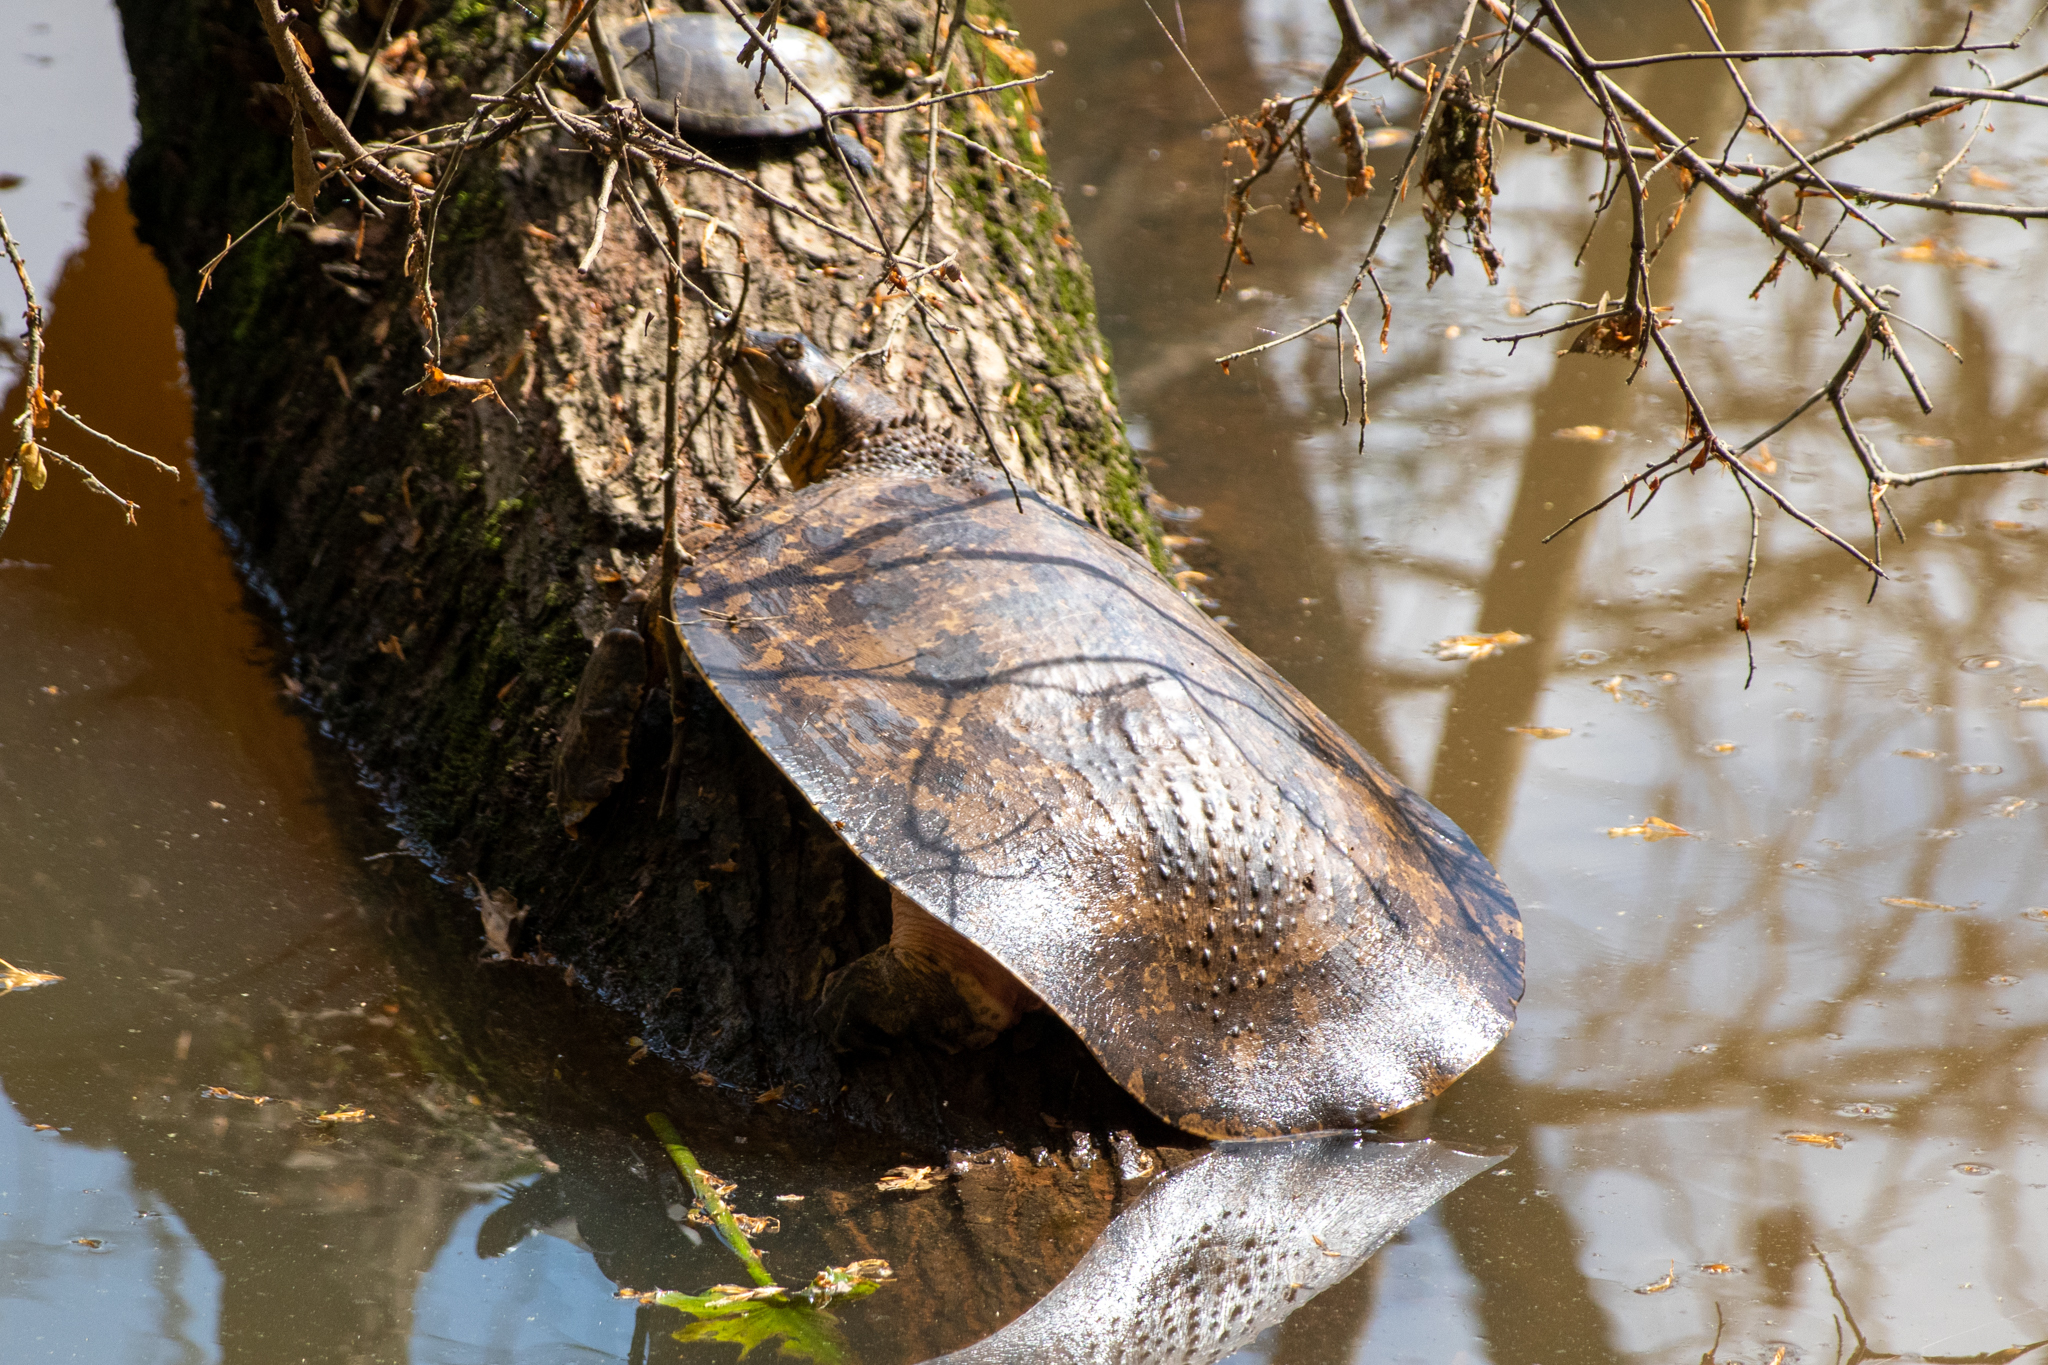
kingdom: Animalia
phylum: Chordata
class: Testudines
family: Trionychidae
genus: Apalone
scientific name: Apalone spinifera
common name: Spiny softshell turtle
